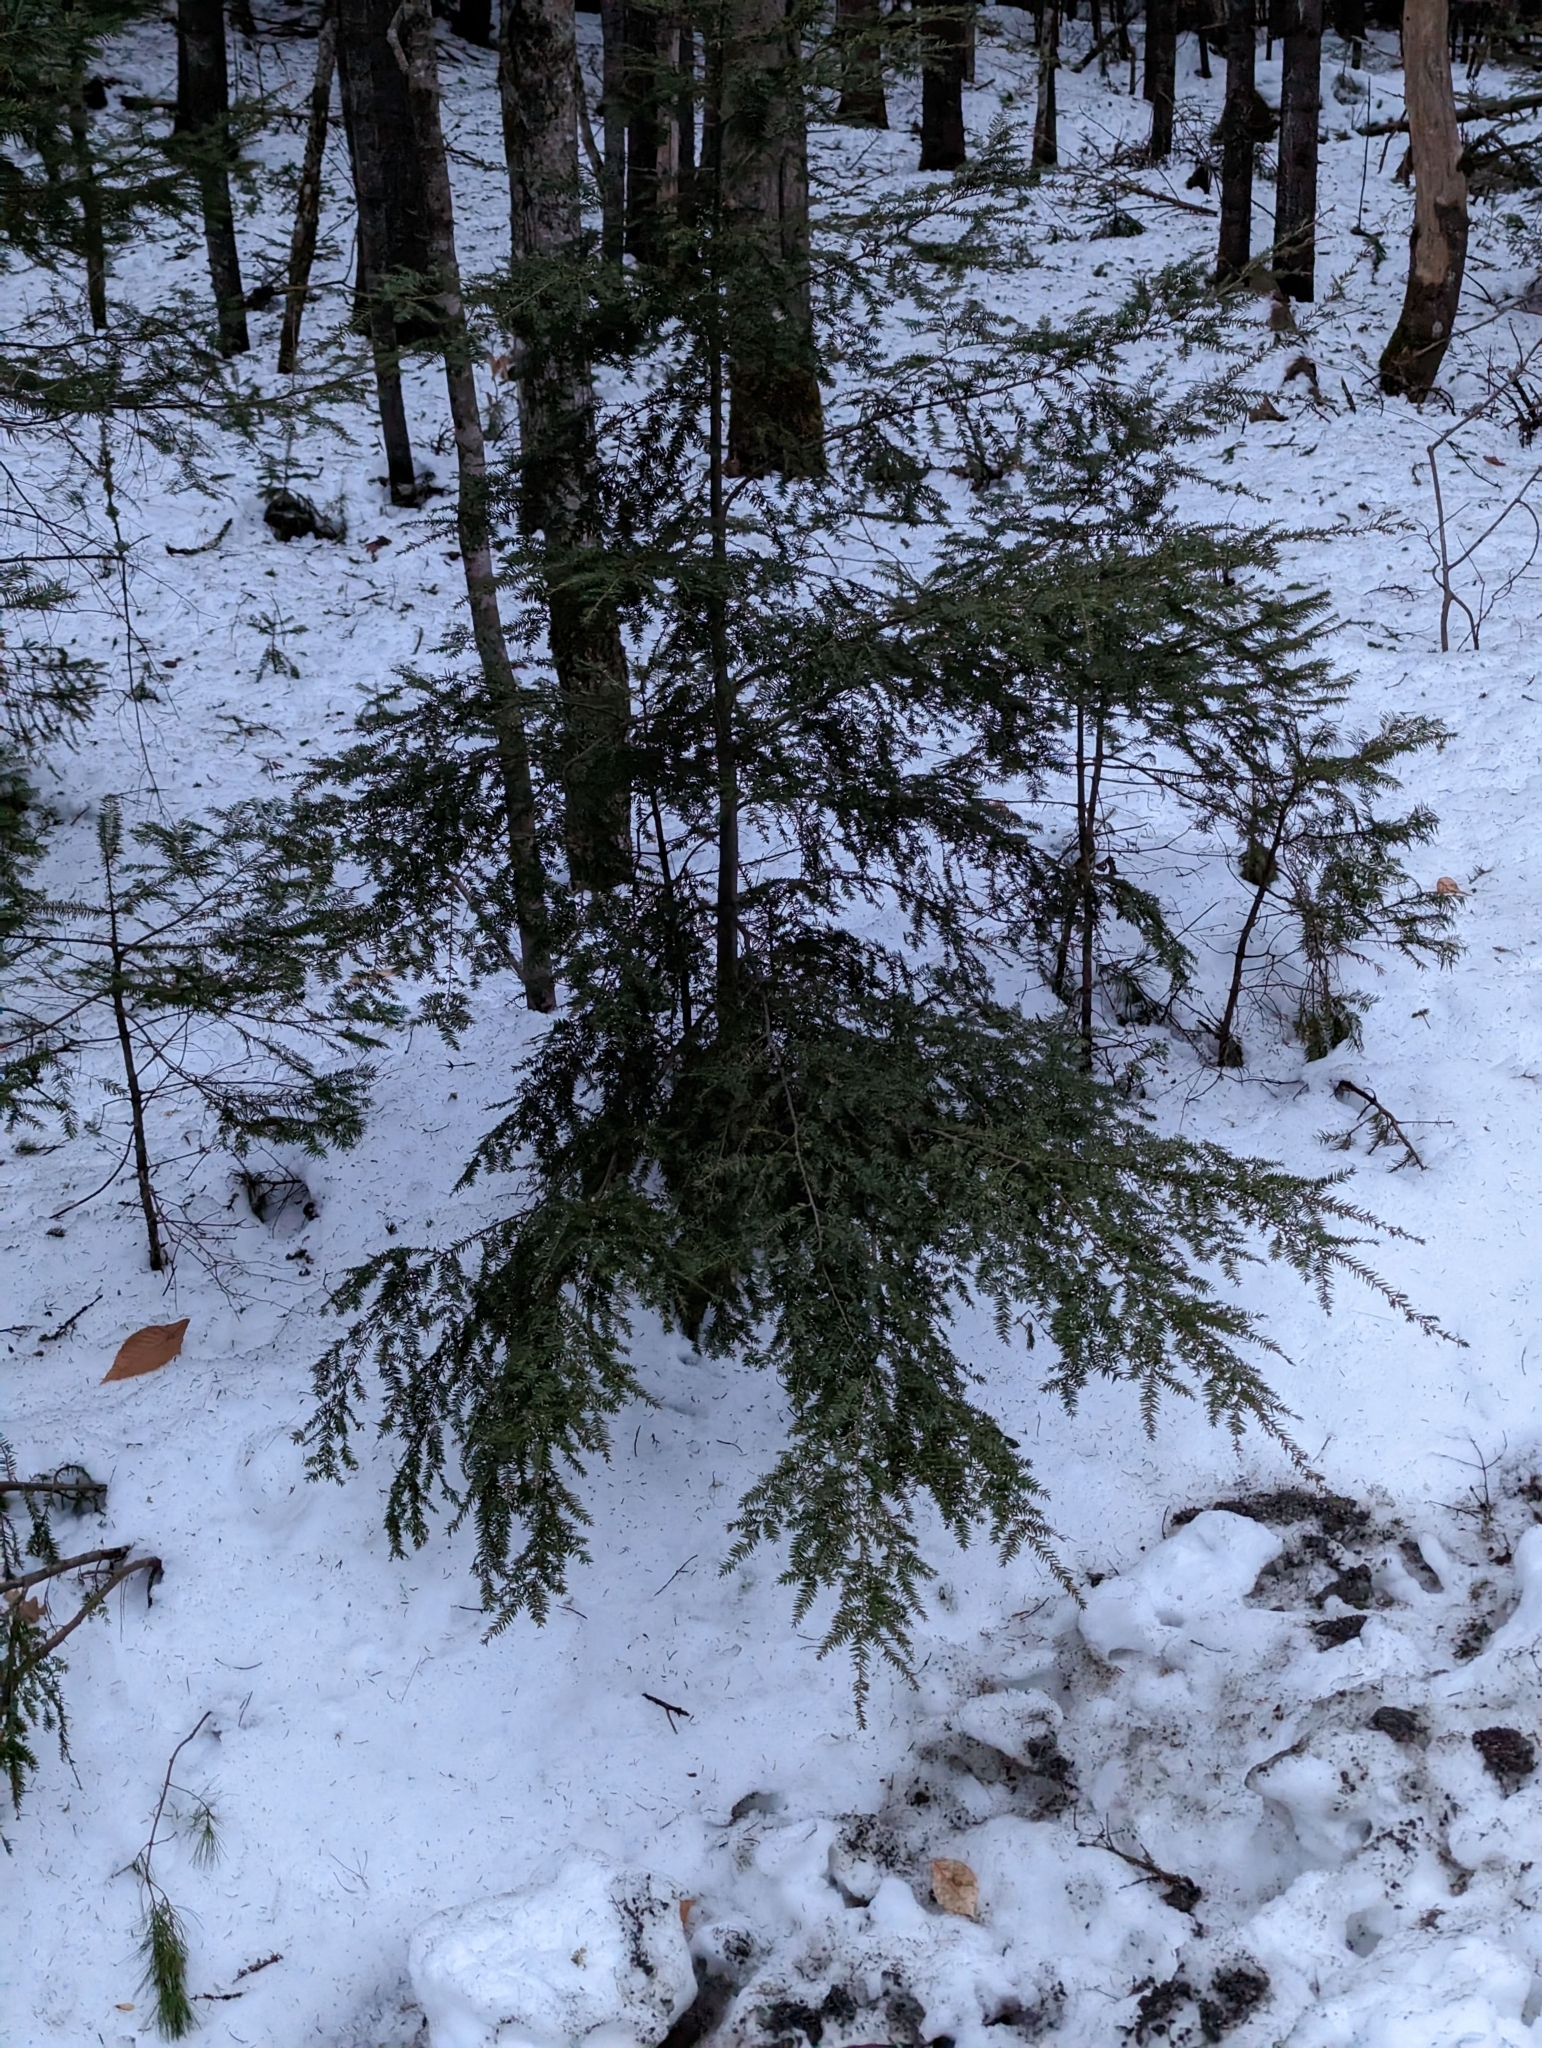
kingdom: Plantae
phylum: Tracheophyta
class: Pinopsida
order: Pinales
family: Pinaceae
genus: Tsuga
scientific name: Tsuga canadensis
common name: Eastern hemlock
